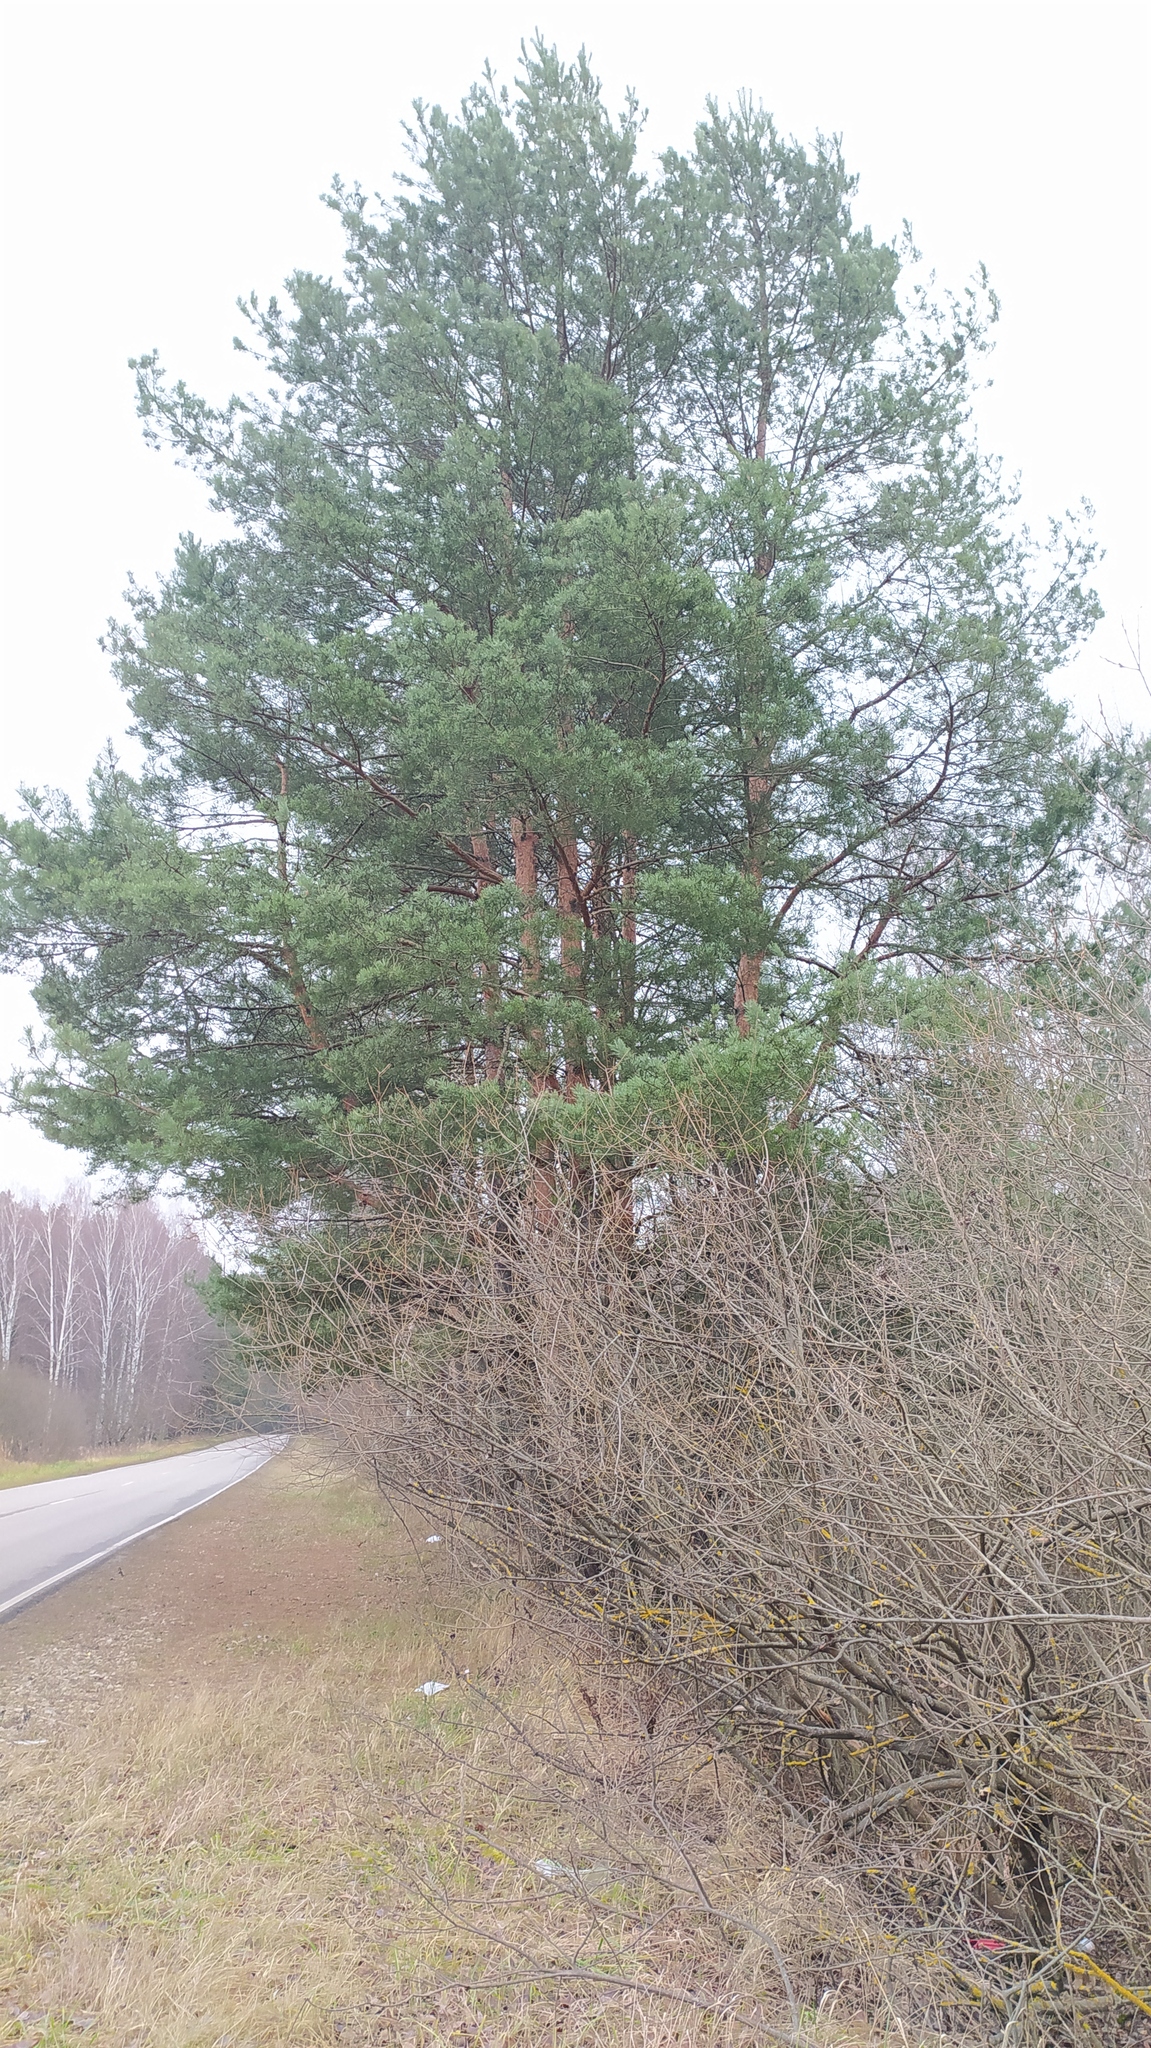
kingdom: Plantae
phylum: Tracheophyta
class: Pinopsida
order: Pinales
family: Pinaceae
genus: Pinus
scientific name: Pinus sylvestris
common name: Scots pine
